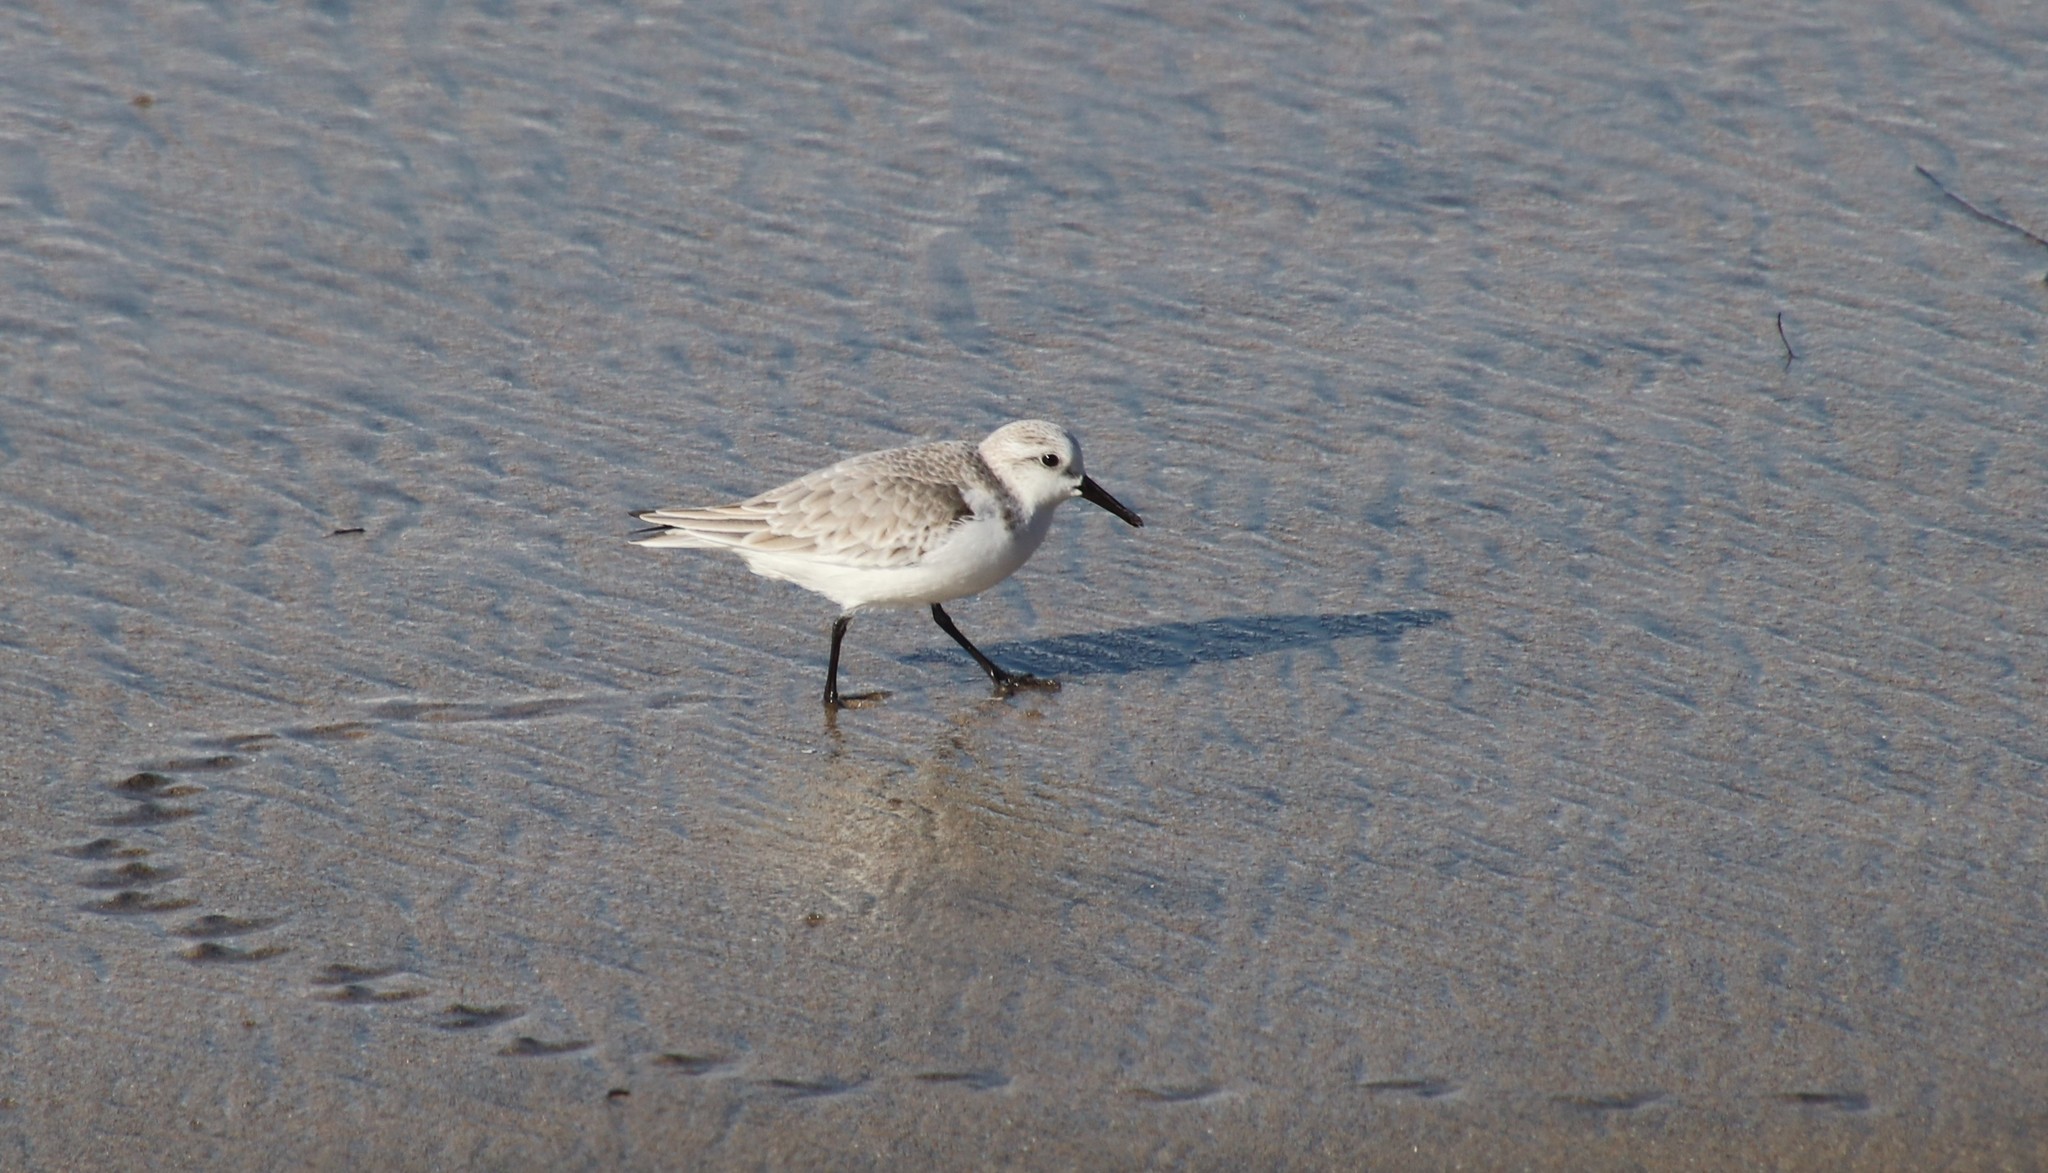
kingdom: Animalia
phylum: Chordata
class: Aves
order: Charadriiformes
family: Scolopacidae
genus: Calidris
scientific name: Calidris alba
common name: Sanderling
